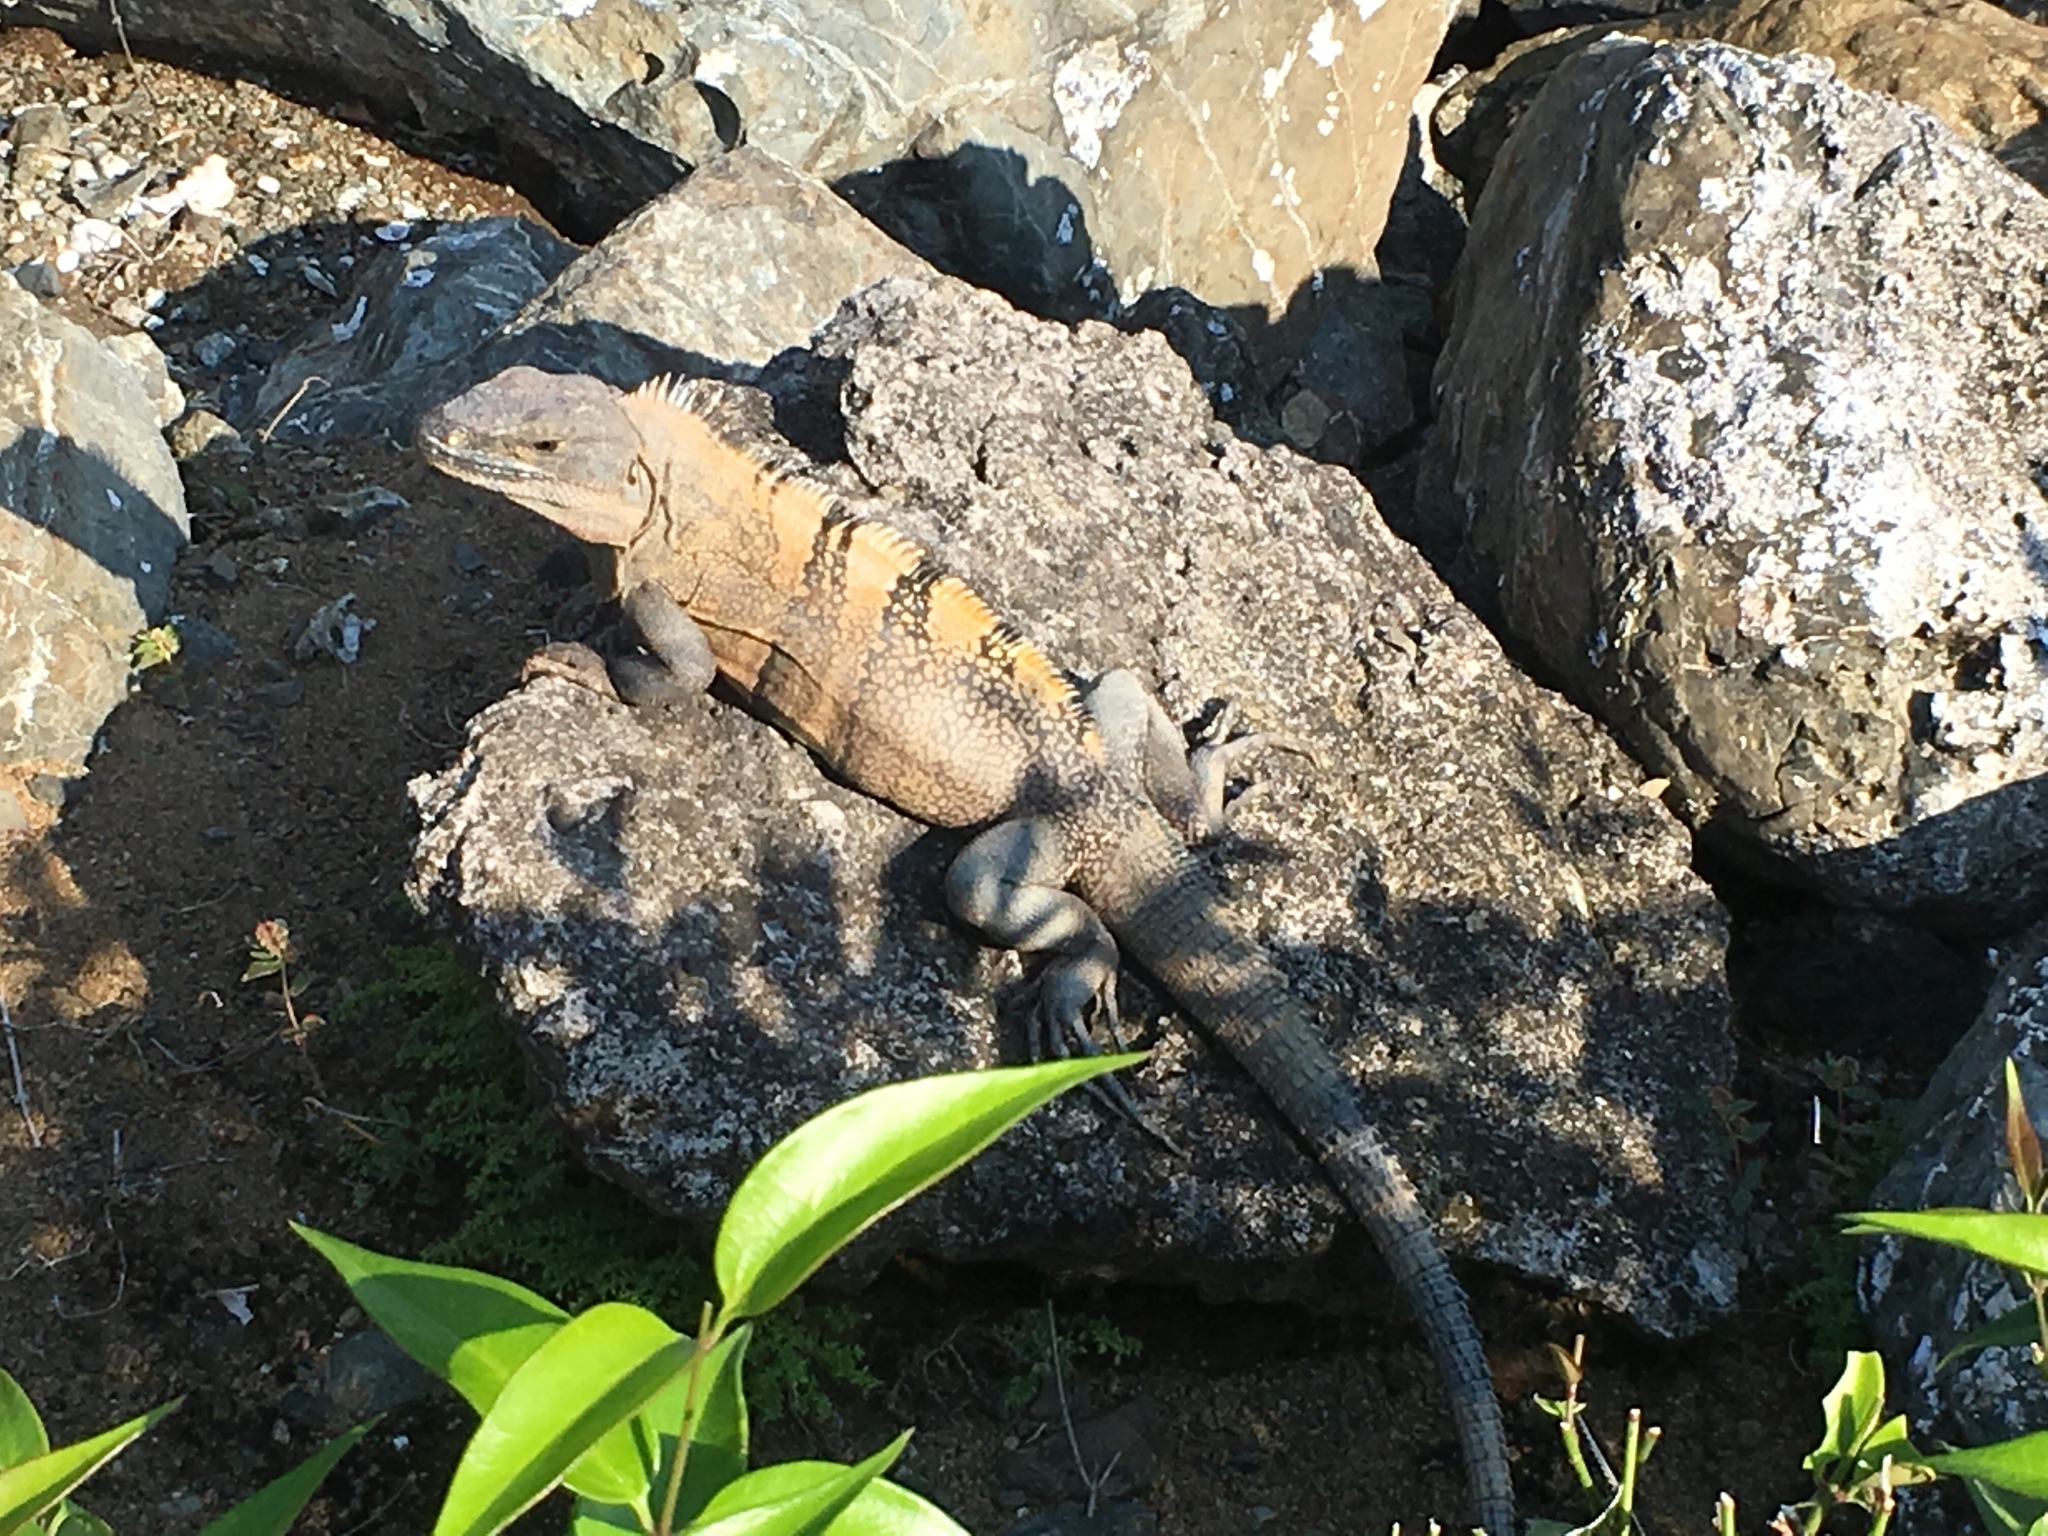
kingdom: Animalia
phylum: Chordata
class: Squamata
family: Iguanidae
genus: Ctenosaura
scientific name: Ctenosaura similis
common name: Black spiny-tailed iguana
